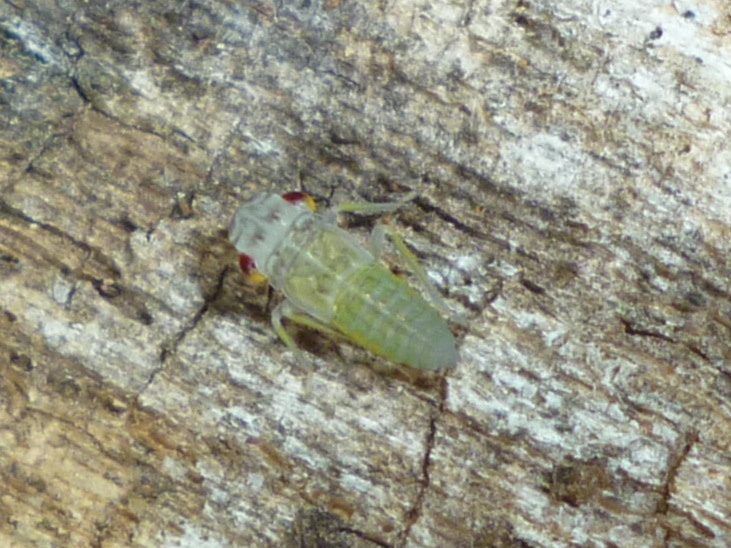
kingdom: Animalia
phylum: Arthropoda
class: Insecta
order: Hemiptera
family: Cicadellidae
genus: Oncometopia
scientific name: Oncometopia orbona
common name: Broad-headed sharpshooter
